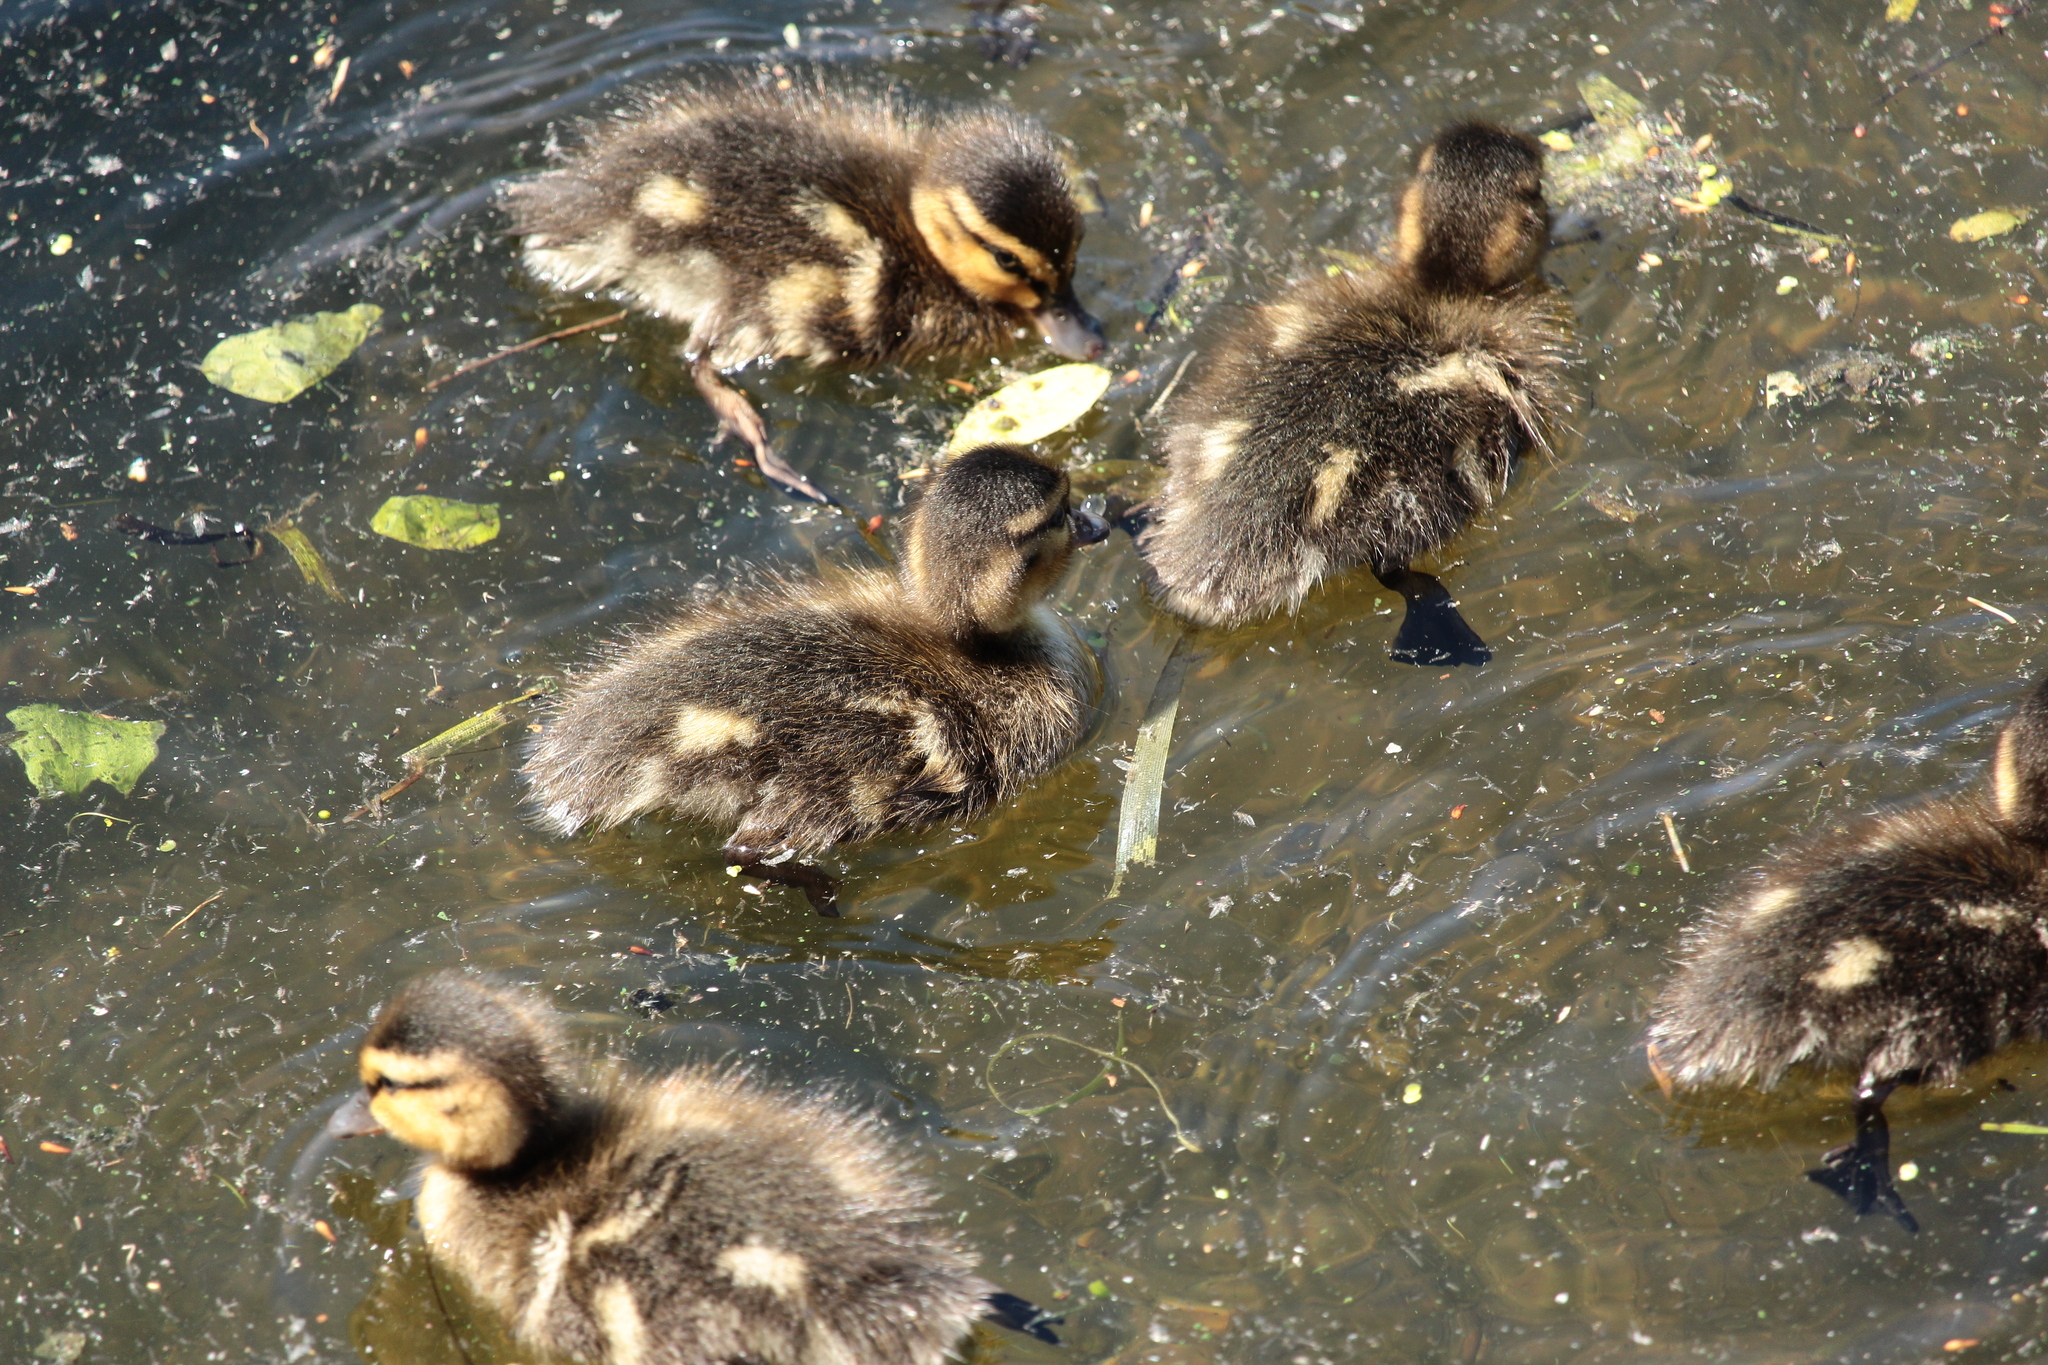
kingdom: Animalia
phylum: Chordata
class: Aves
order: Anseriformes
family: Anatidae
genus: Anas
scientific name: Anas platyrhynchos
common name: Mallard
